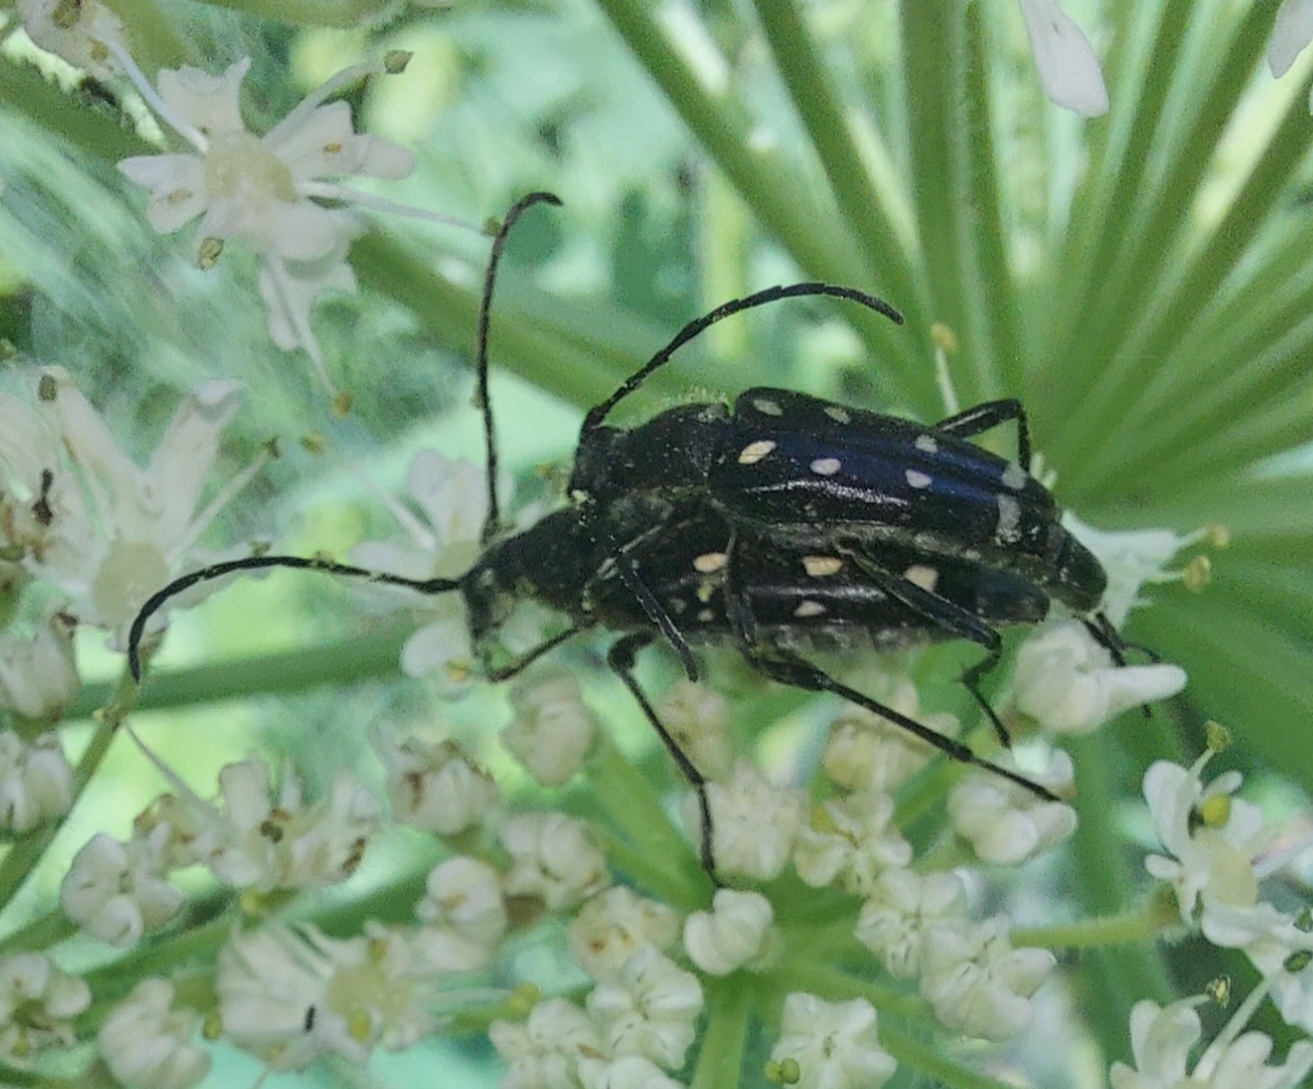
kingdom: Animalia
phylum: Arthropoda
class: Insecta
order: Coleoptera
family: Cerambycidae
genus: Leptura
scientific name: Leptura duodecimguttata
